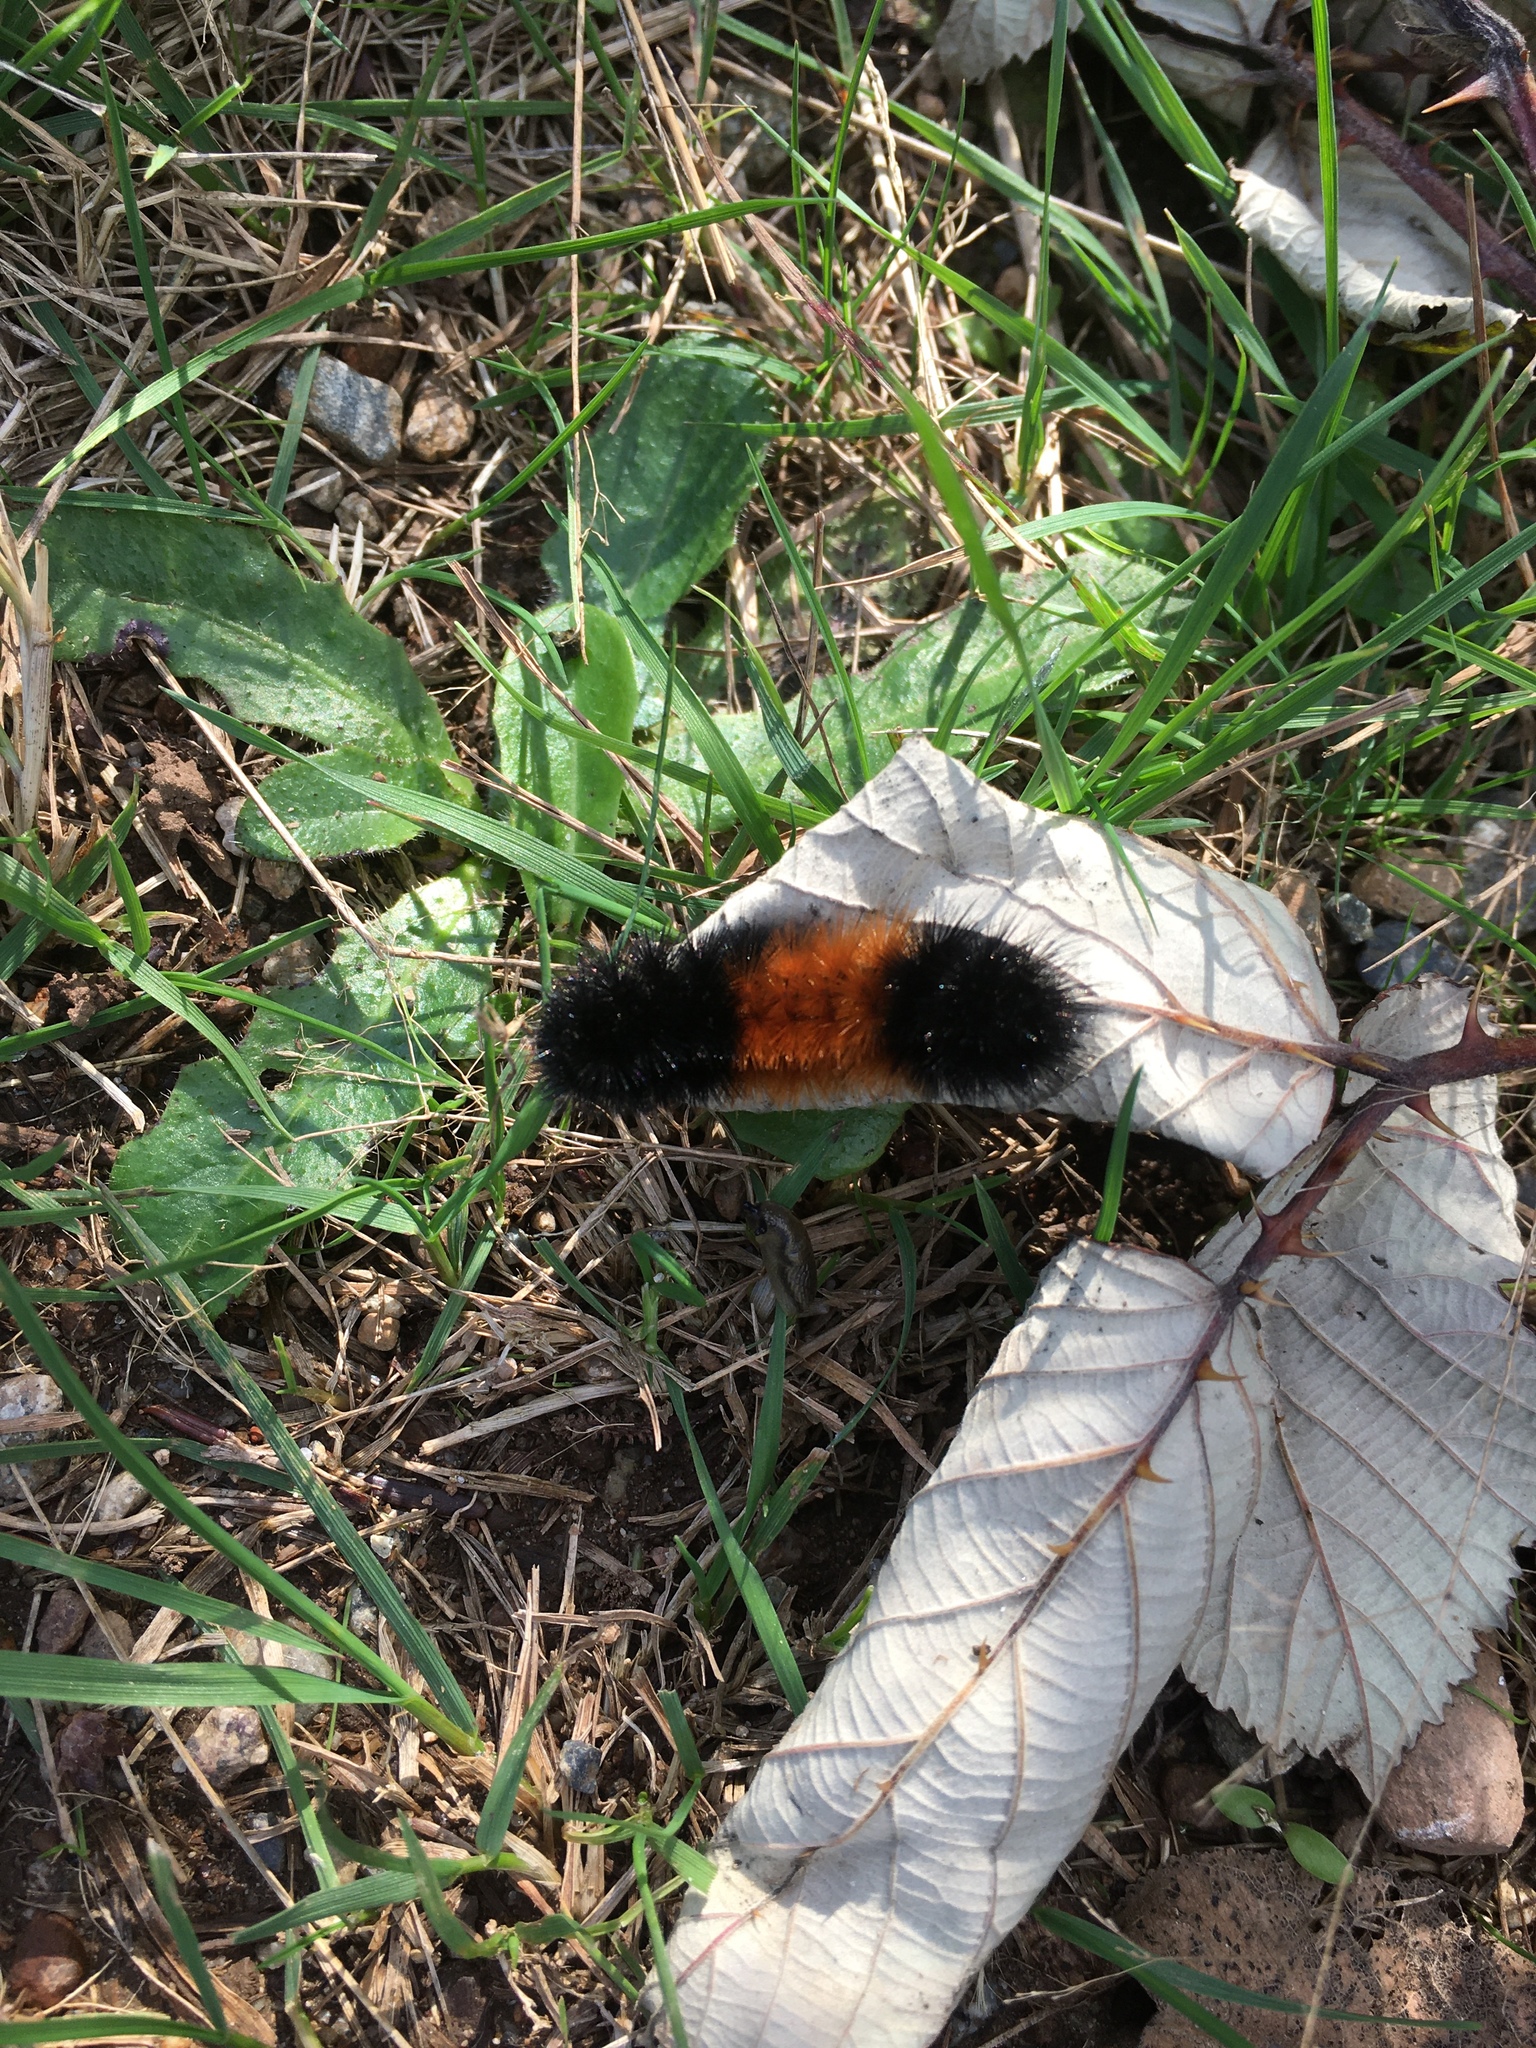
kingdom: Animalia
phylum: Arthropoda
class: Insecta
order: Lepidoptera
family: Erebidae
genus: Pyrrharctia
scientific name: Pyrrharctia isabella
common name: Isabella tiger moth
